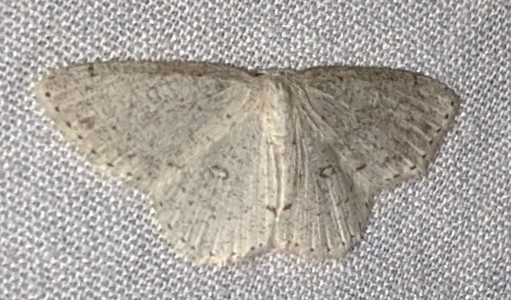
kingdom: Animalia
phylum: Arthropoda
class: Insecta
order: Lepidoptera
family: Geometridae
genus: Cyclophora
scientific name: Cyclophora pendulinaria
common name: Sweet fern geometer
